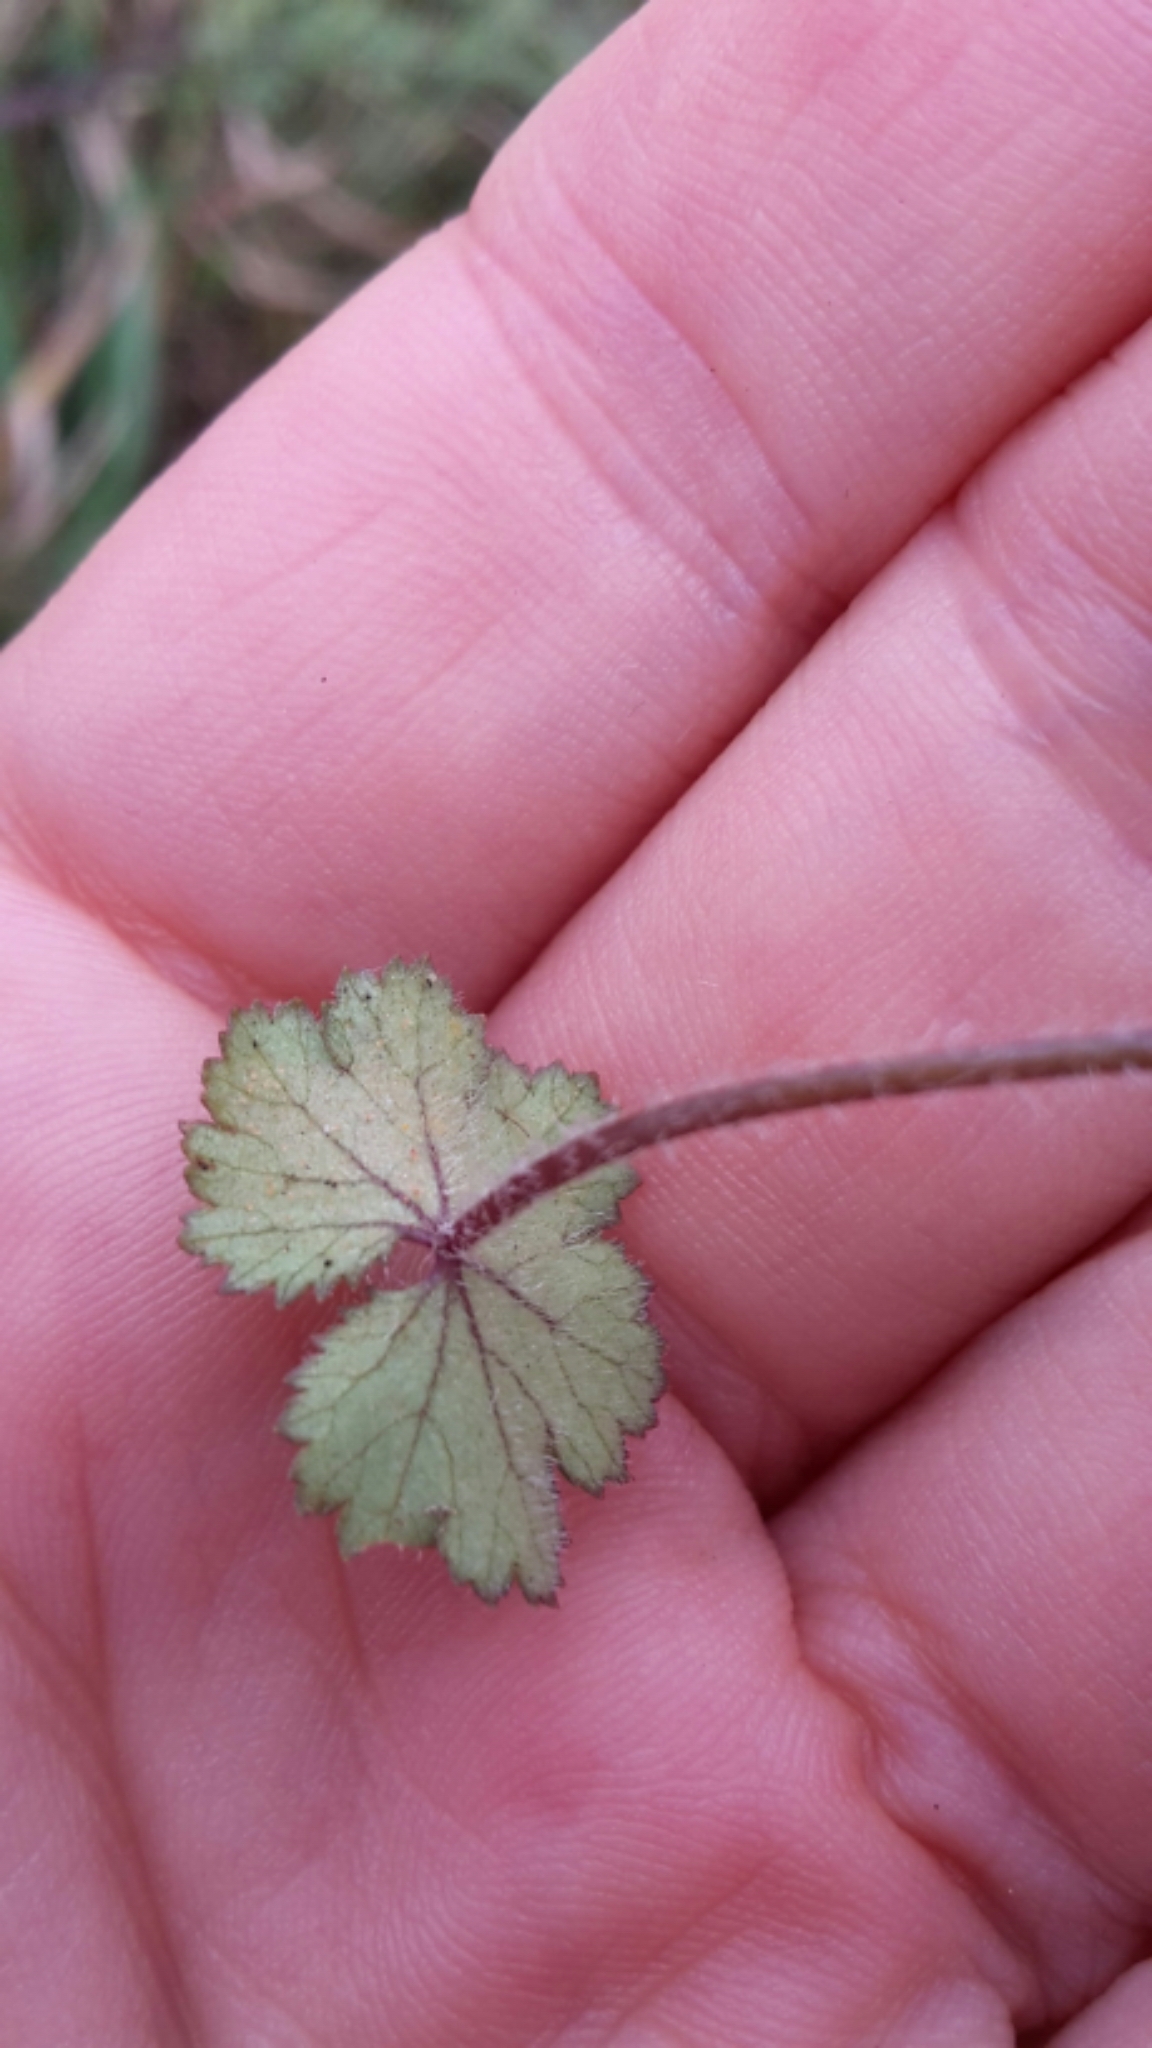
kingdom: Plantae
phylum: Tracheophyta
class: Magnoliopsida
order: Apiales
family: Araliaceae
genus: Hydrocotyle
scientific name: Hydrocotyle moschata
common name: Hairy pennywort
